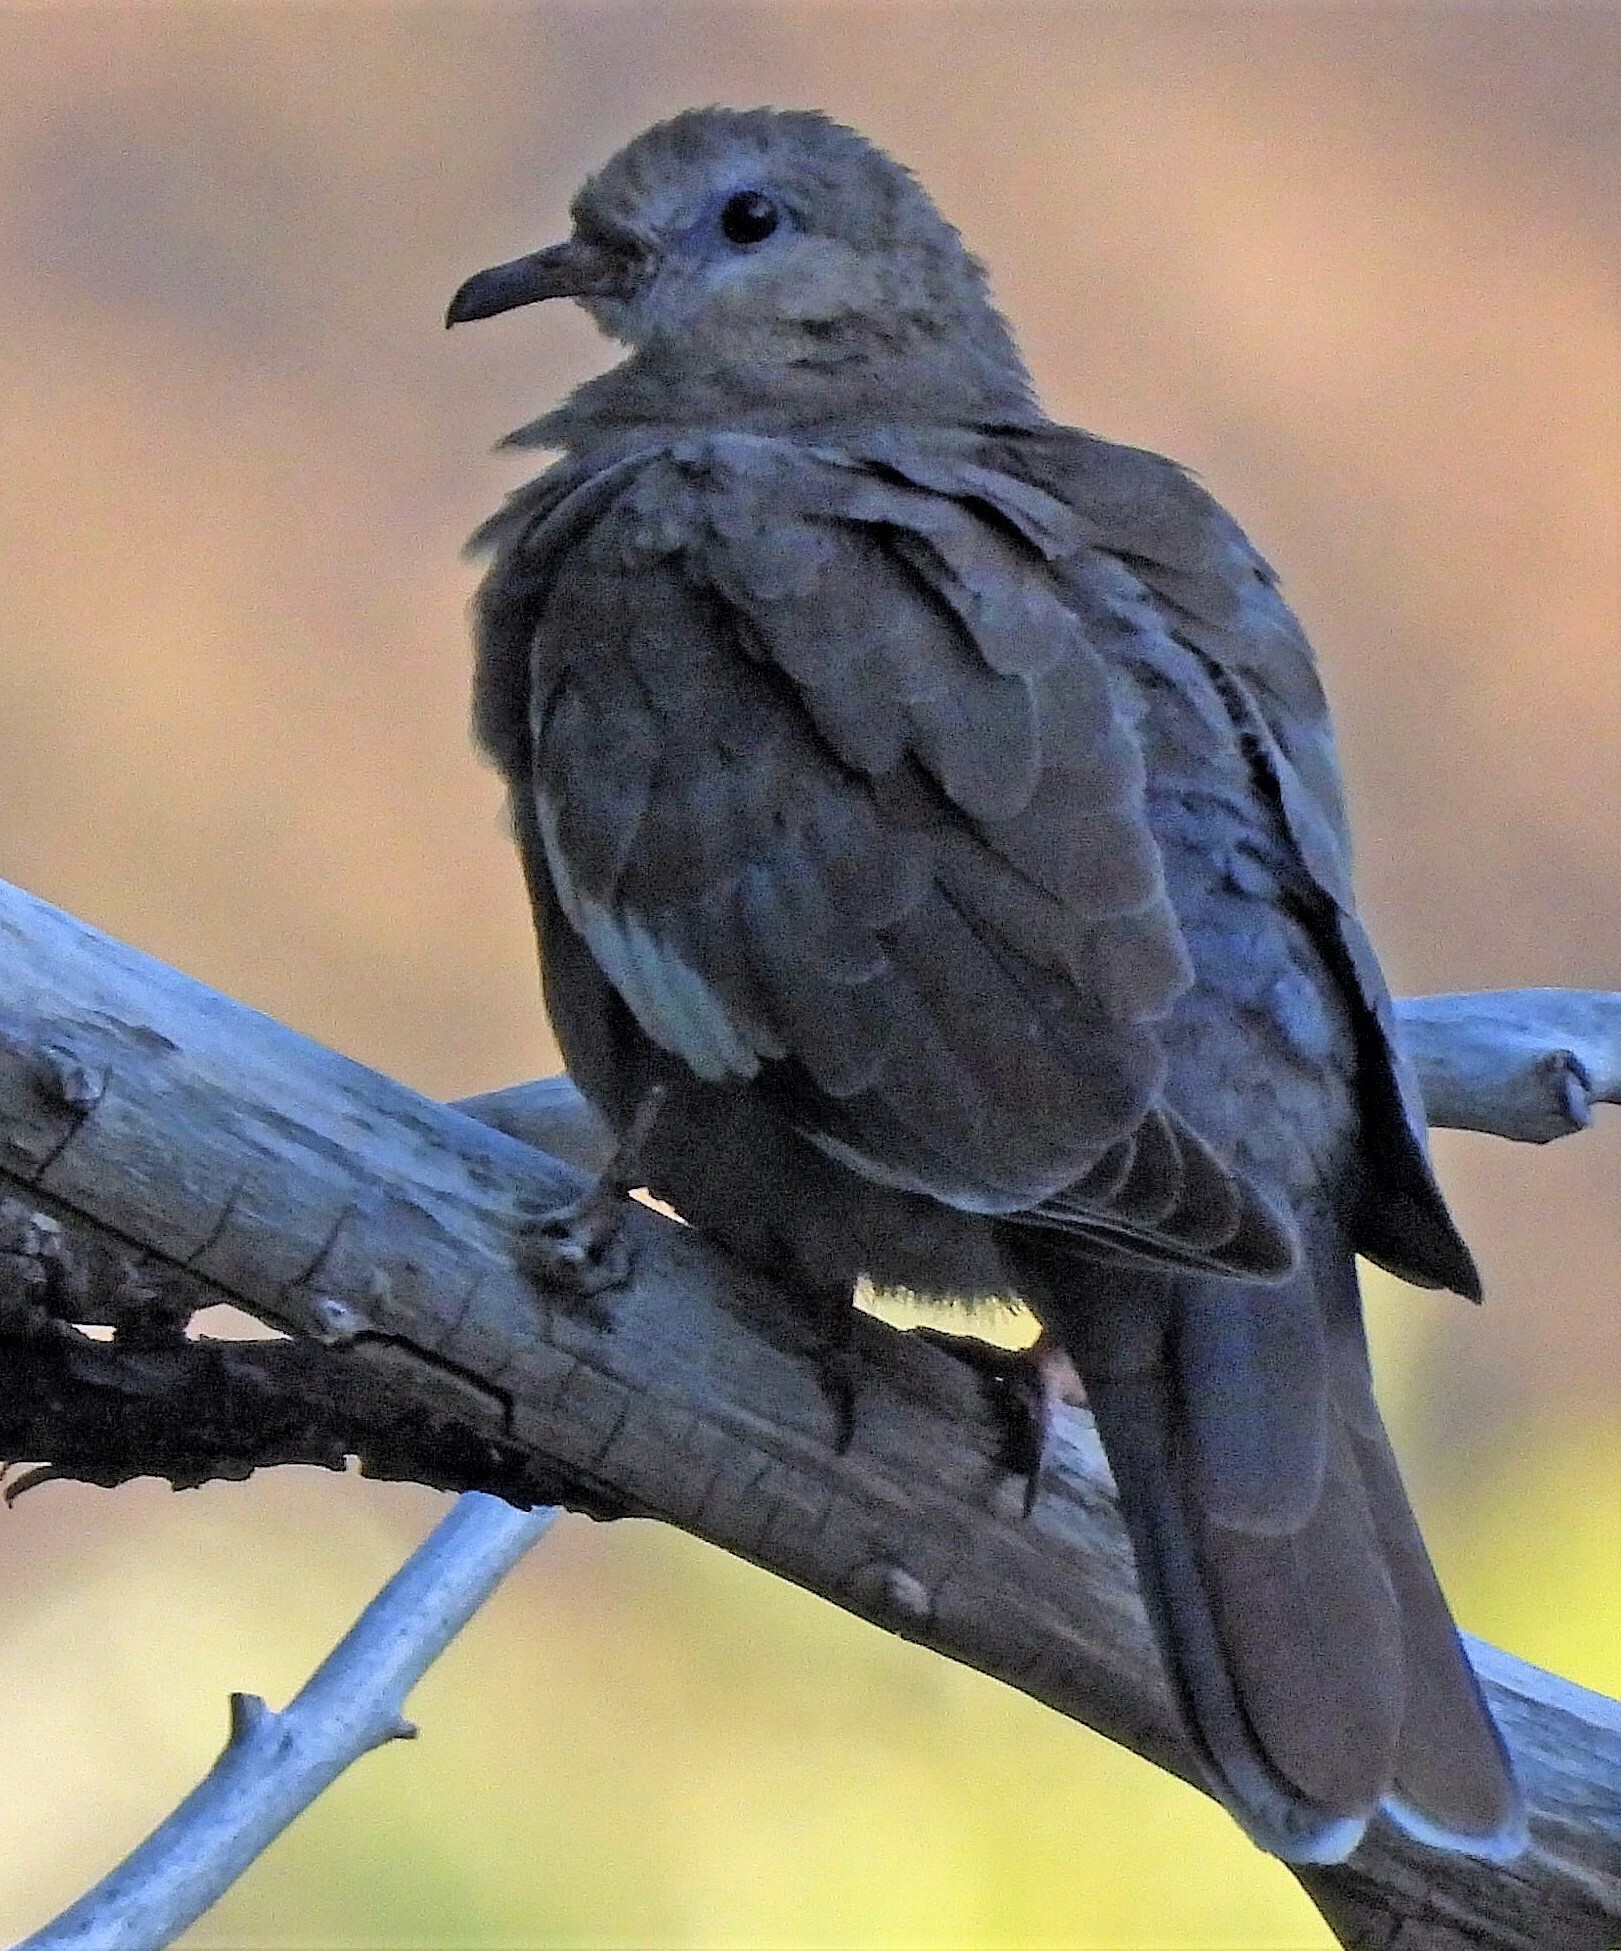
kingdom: Animalia
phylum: Chordata
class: Aves
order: Columbiformes
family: Columbidae
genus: Zenaida
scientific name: Zenaida meloda
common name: West peruvian dove
